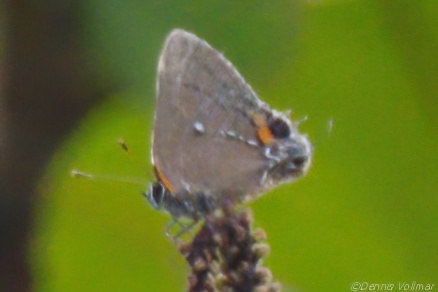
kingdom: Animalia
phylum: Arthropoda
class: Insecta
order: Lepidoptera
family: Lycaenidae
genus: Thecla
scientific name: Thecla angelia
